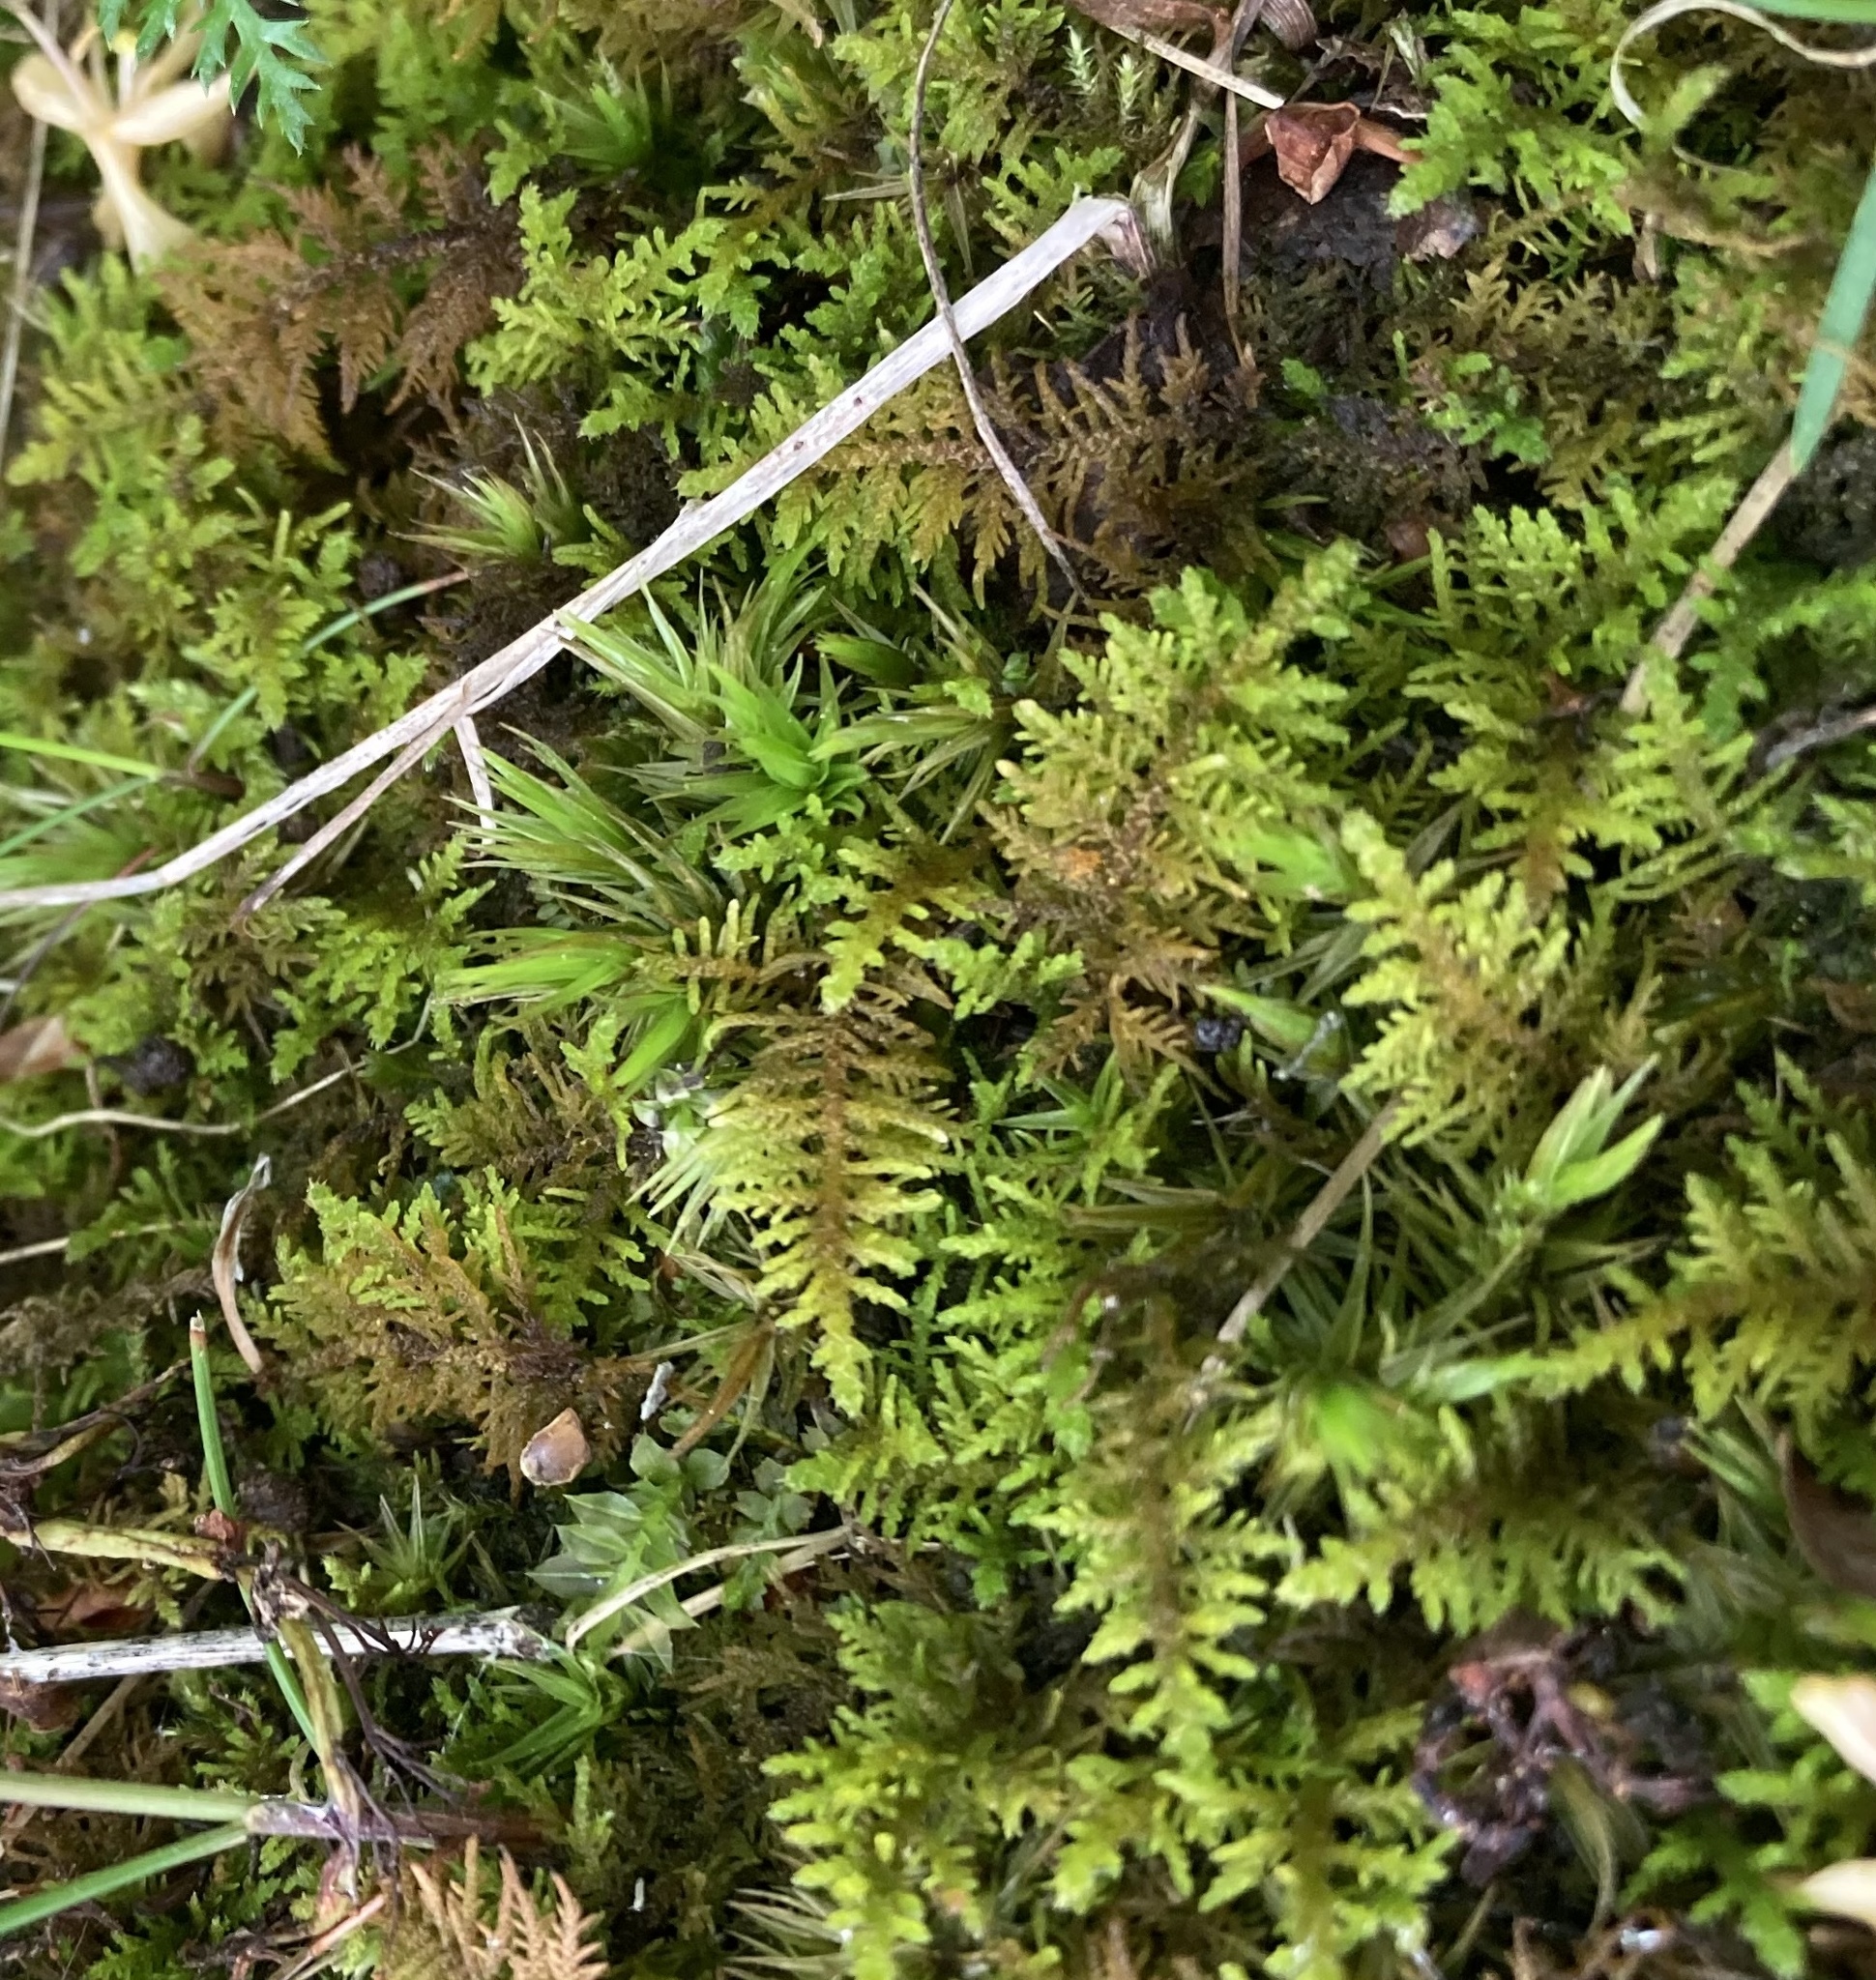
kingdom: Plantae
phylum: Bryophyta
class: Bryopsida
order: Hypnales
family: Thuidiaceae
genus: Thuidium
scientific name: Thuidium delicatulum
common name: Delicate fern moss
